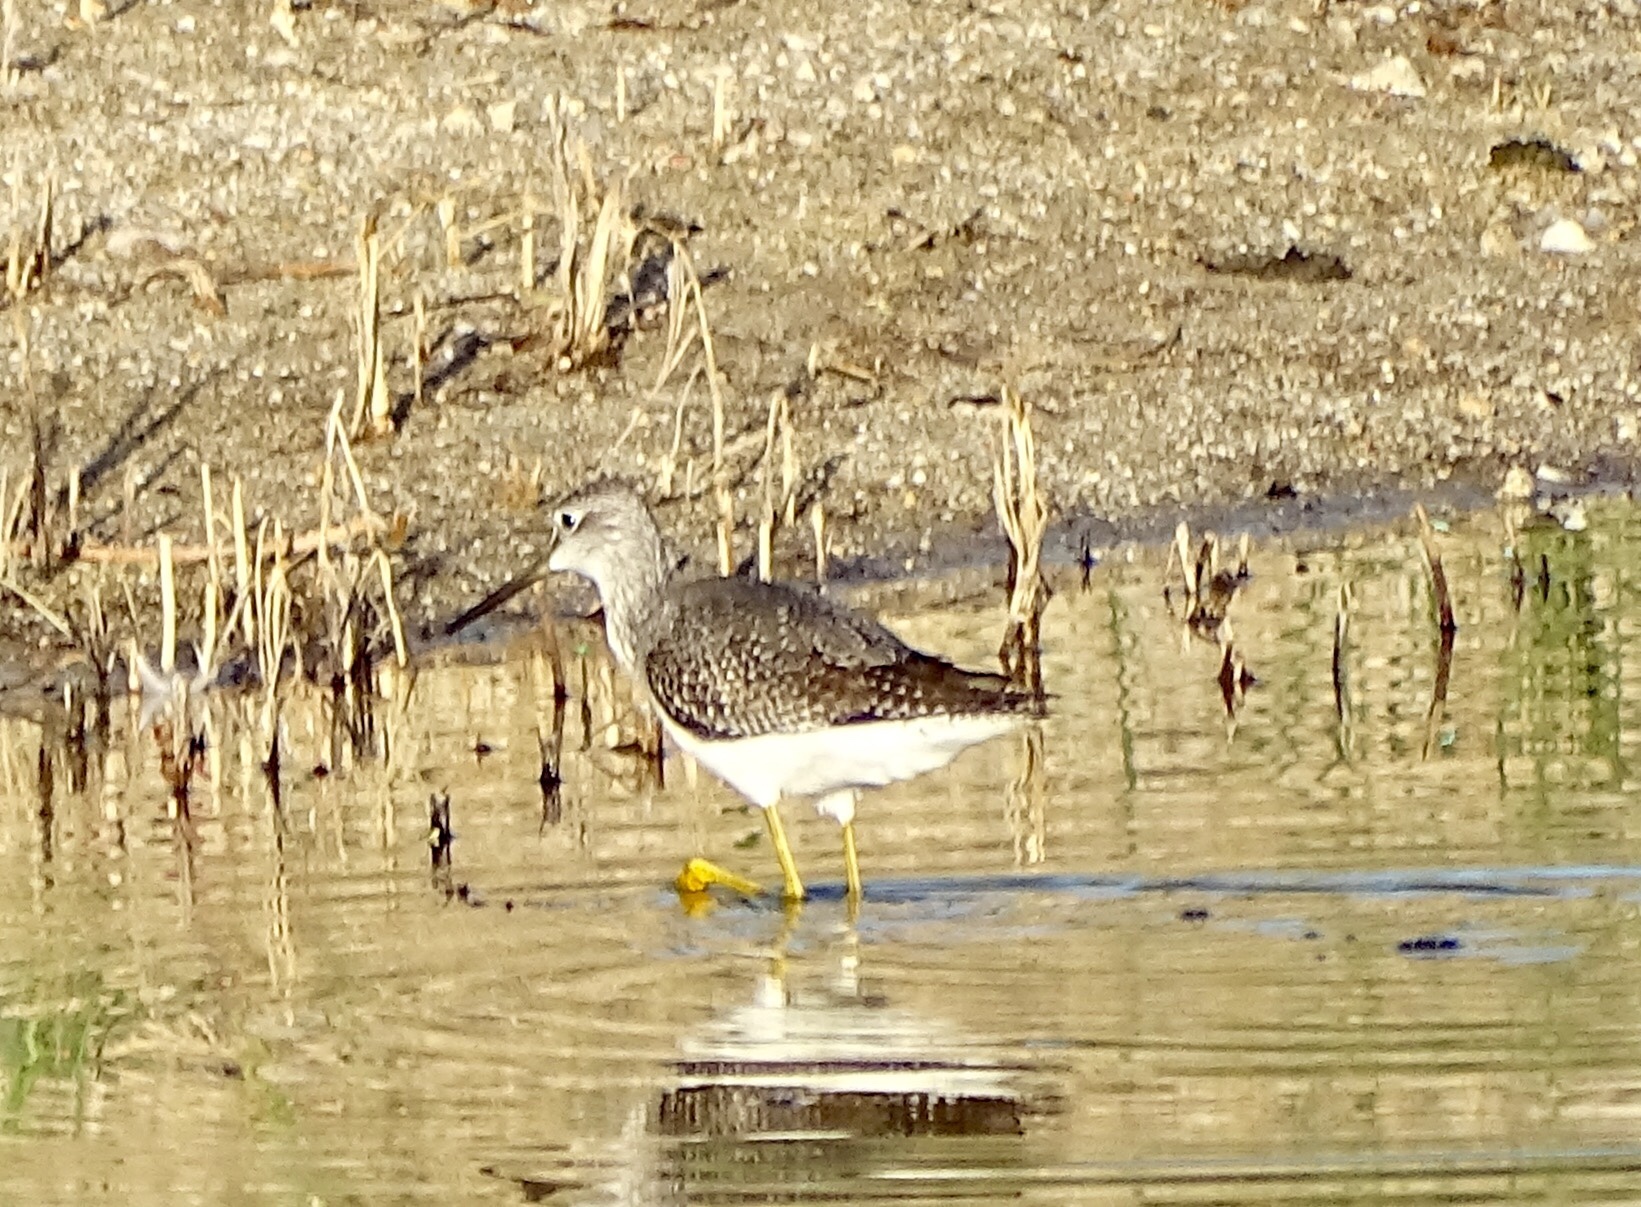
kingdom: Animalia
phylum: Chordata
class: Aves
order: Charadriiformes
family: Scolopacidae
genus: Tringa
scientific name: Tringa melanoleuca
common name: Greater yellowlegs
